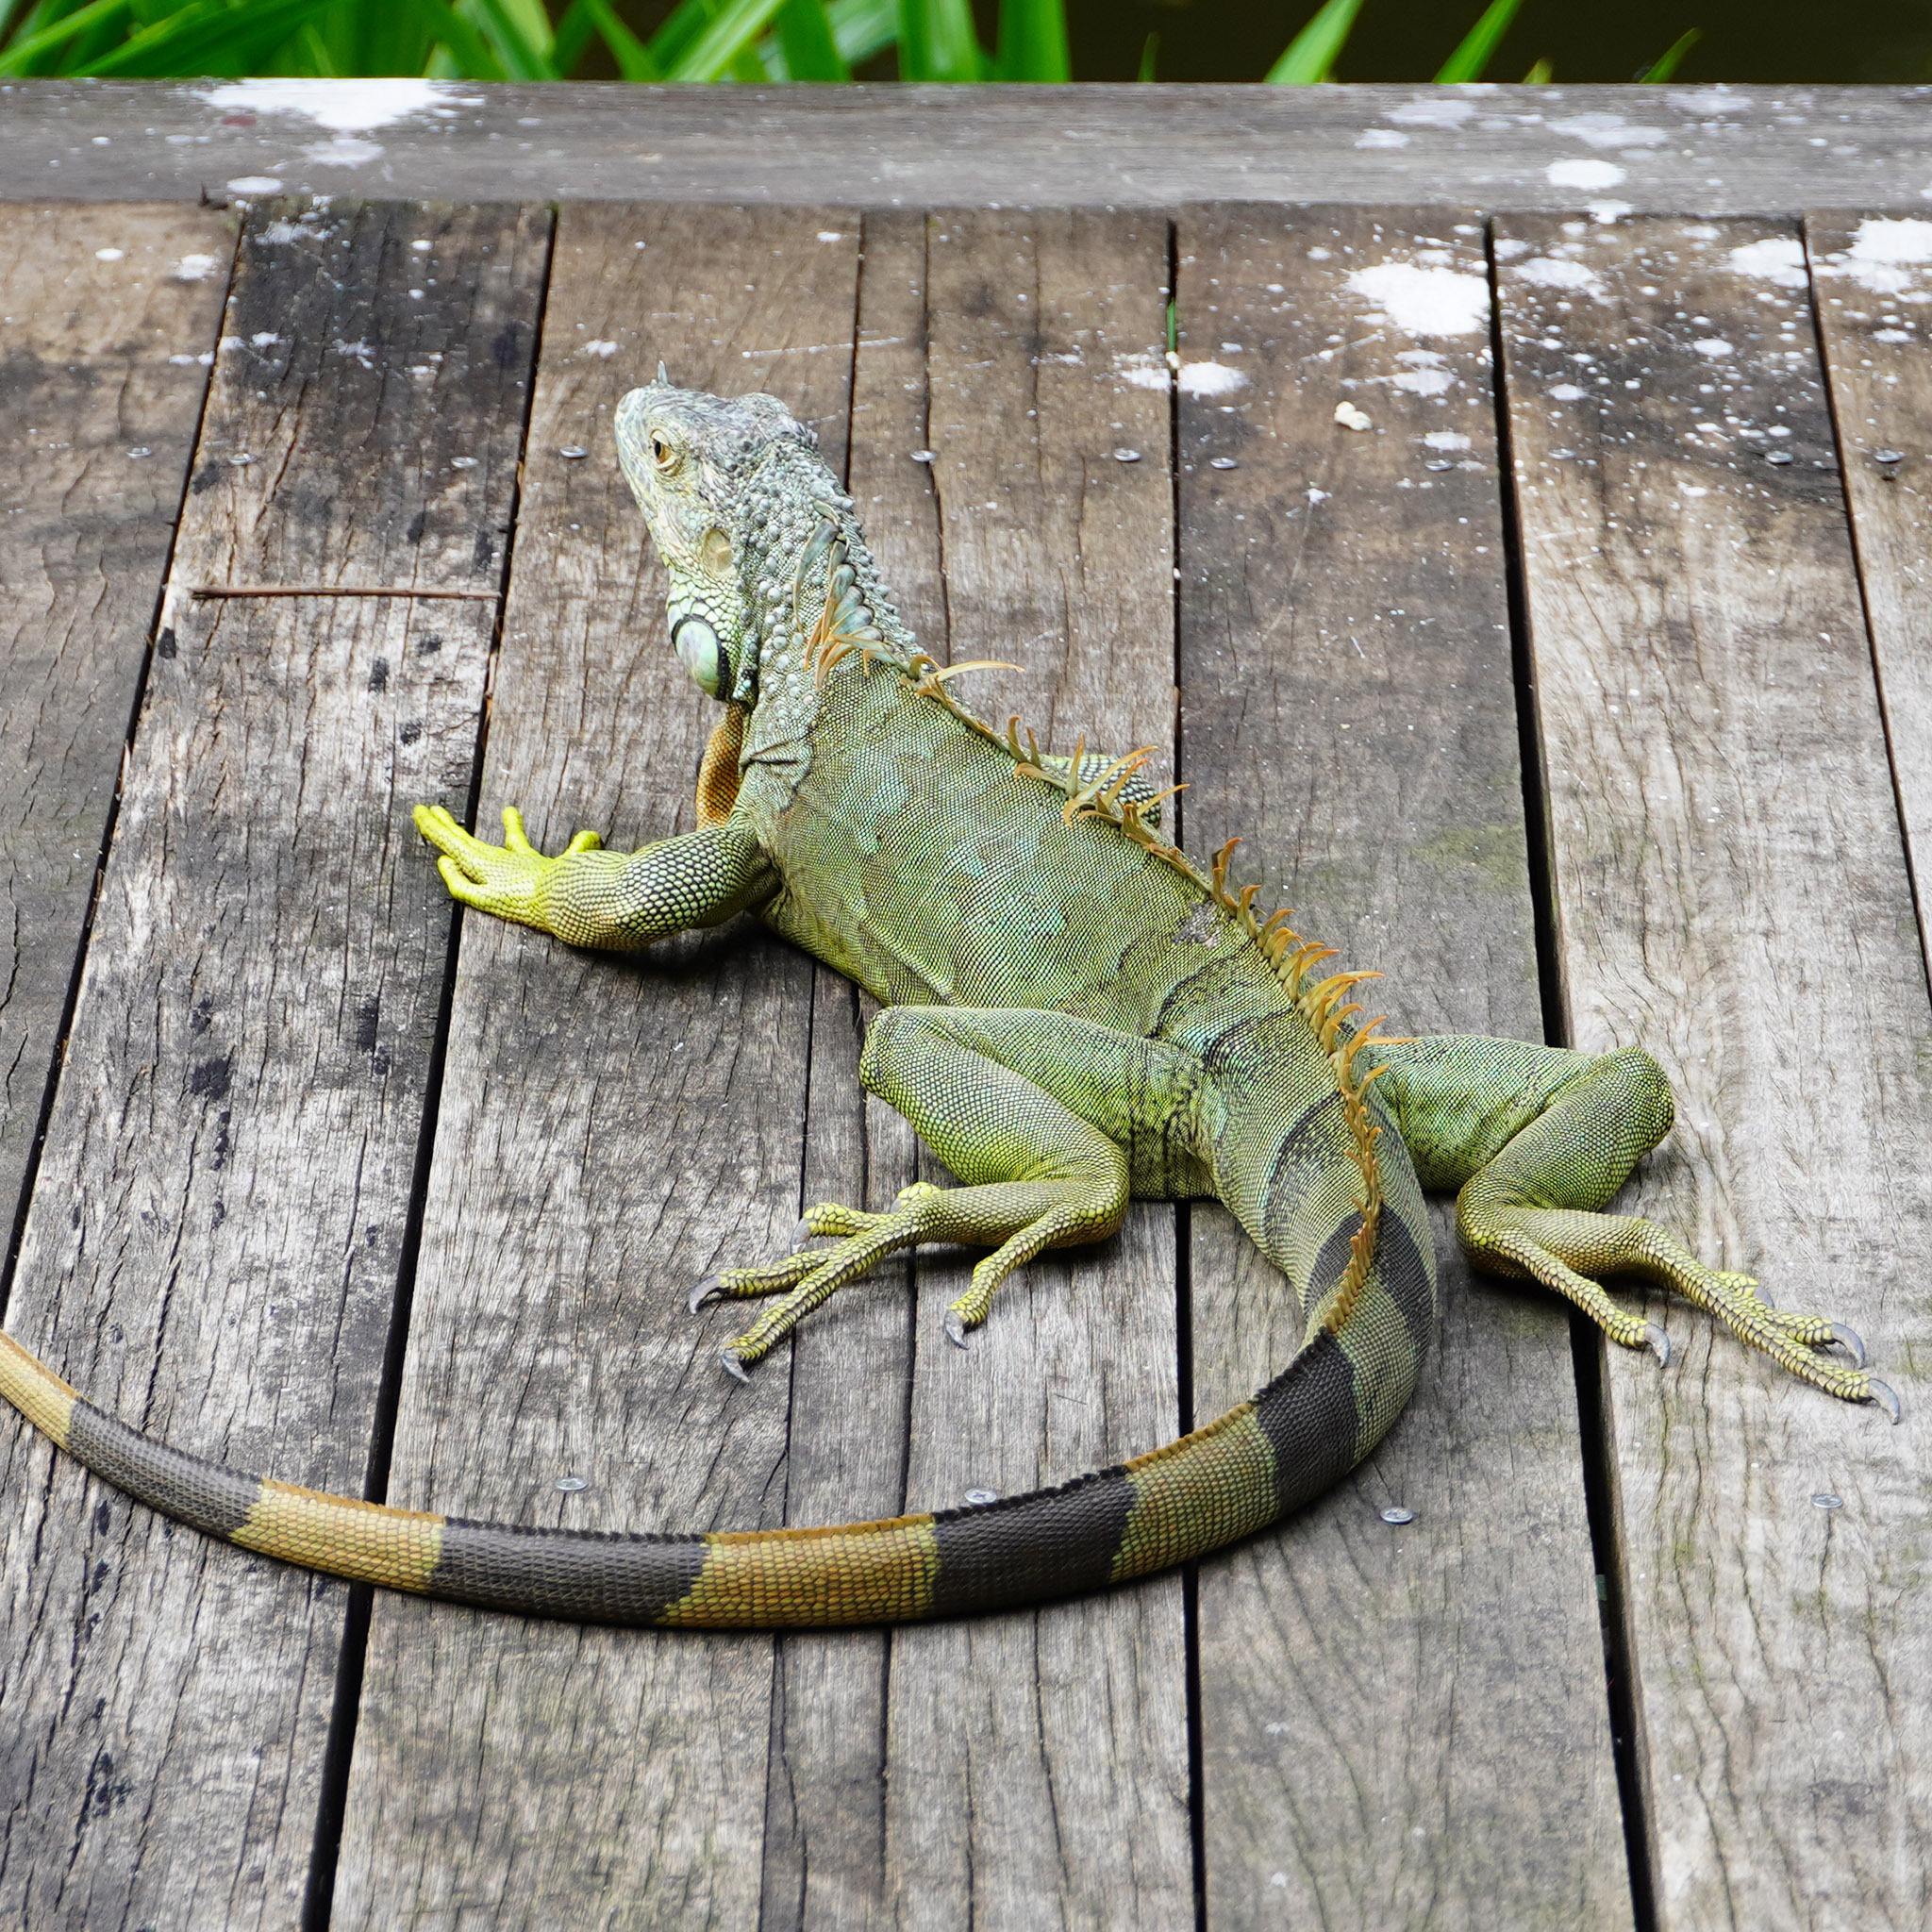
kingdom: Animalia
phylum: Chordata
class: Squamata
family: Iguanidae
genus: Iguana
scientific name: Iguana iguana
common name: Green iguana
